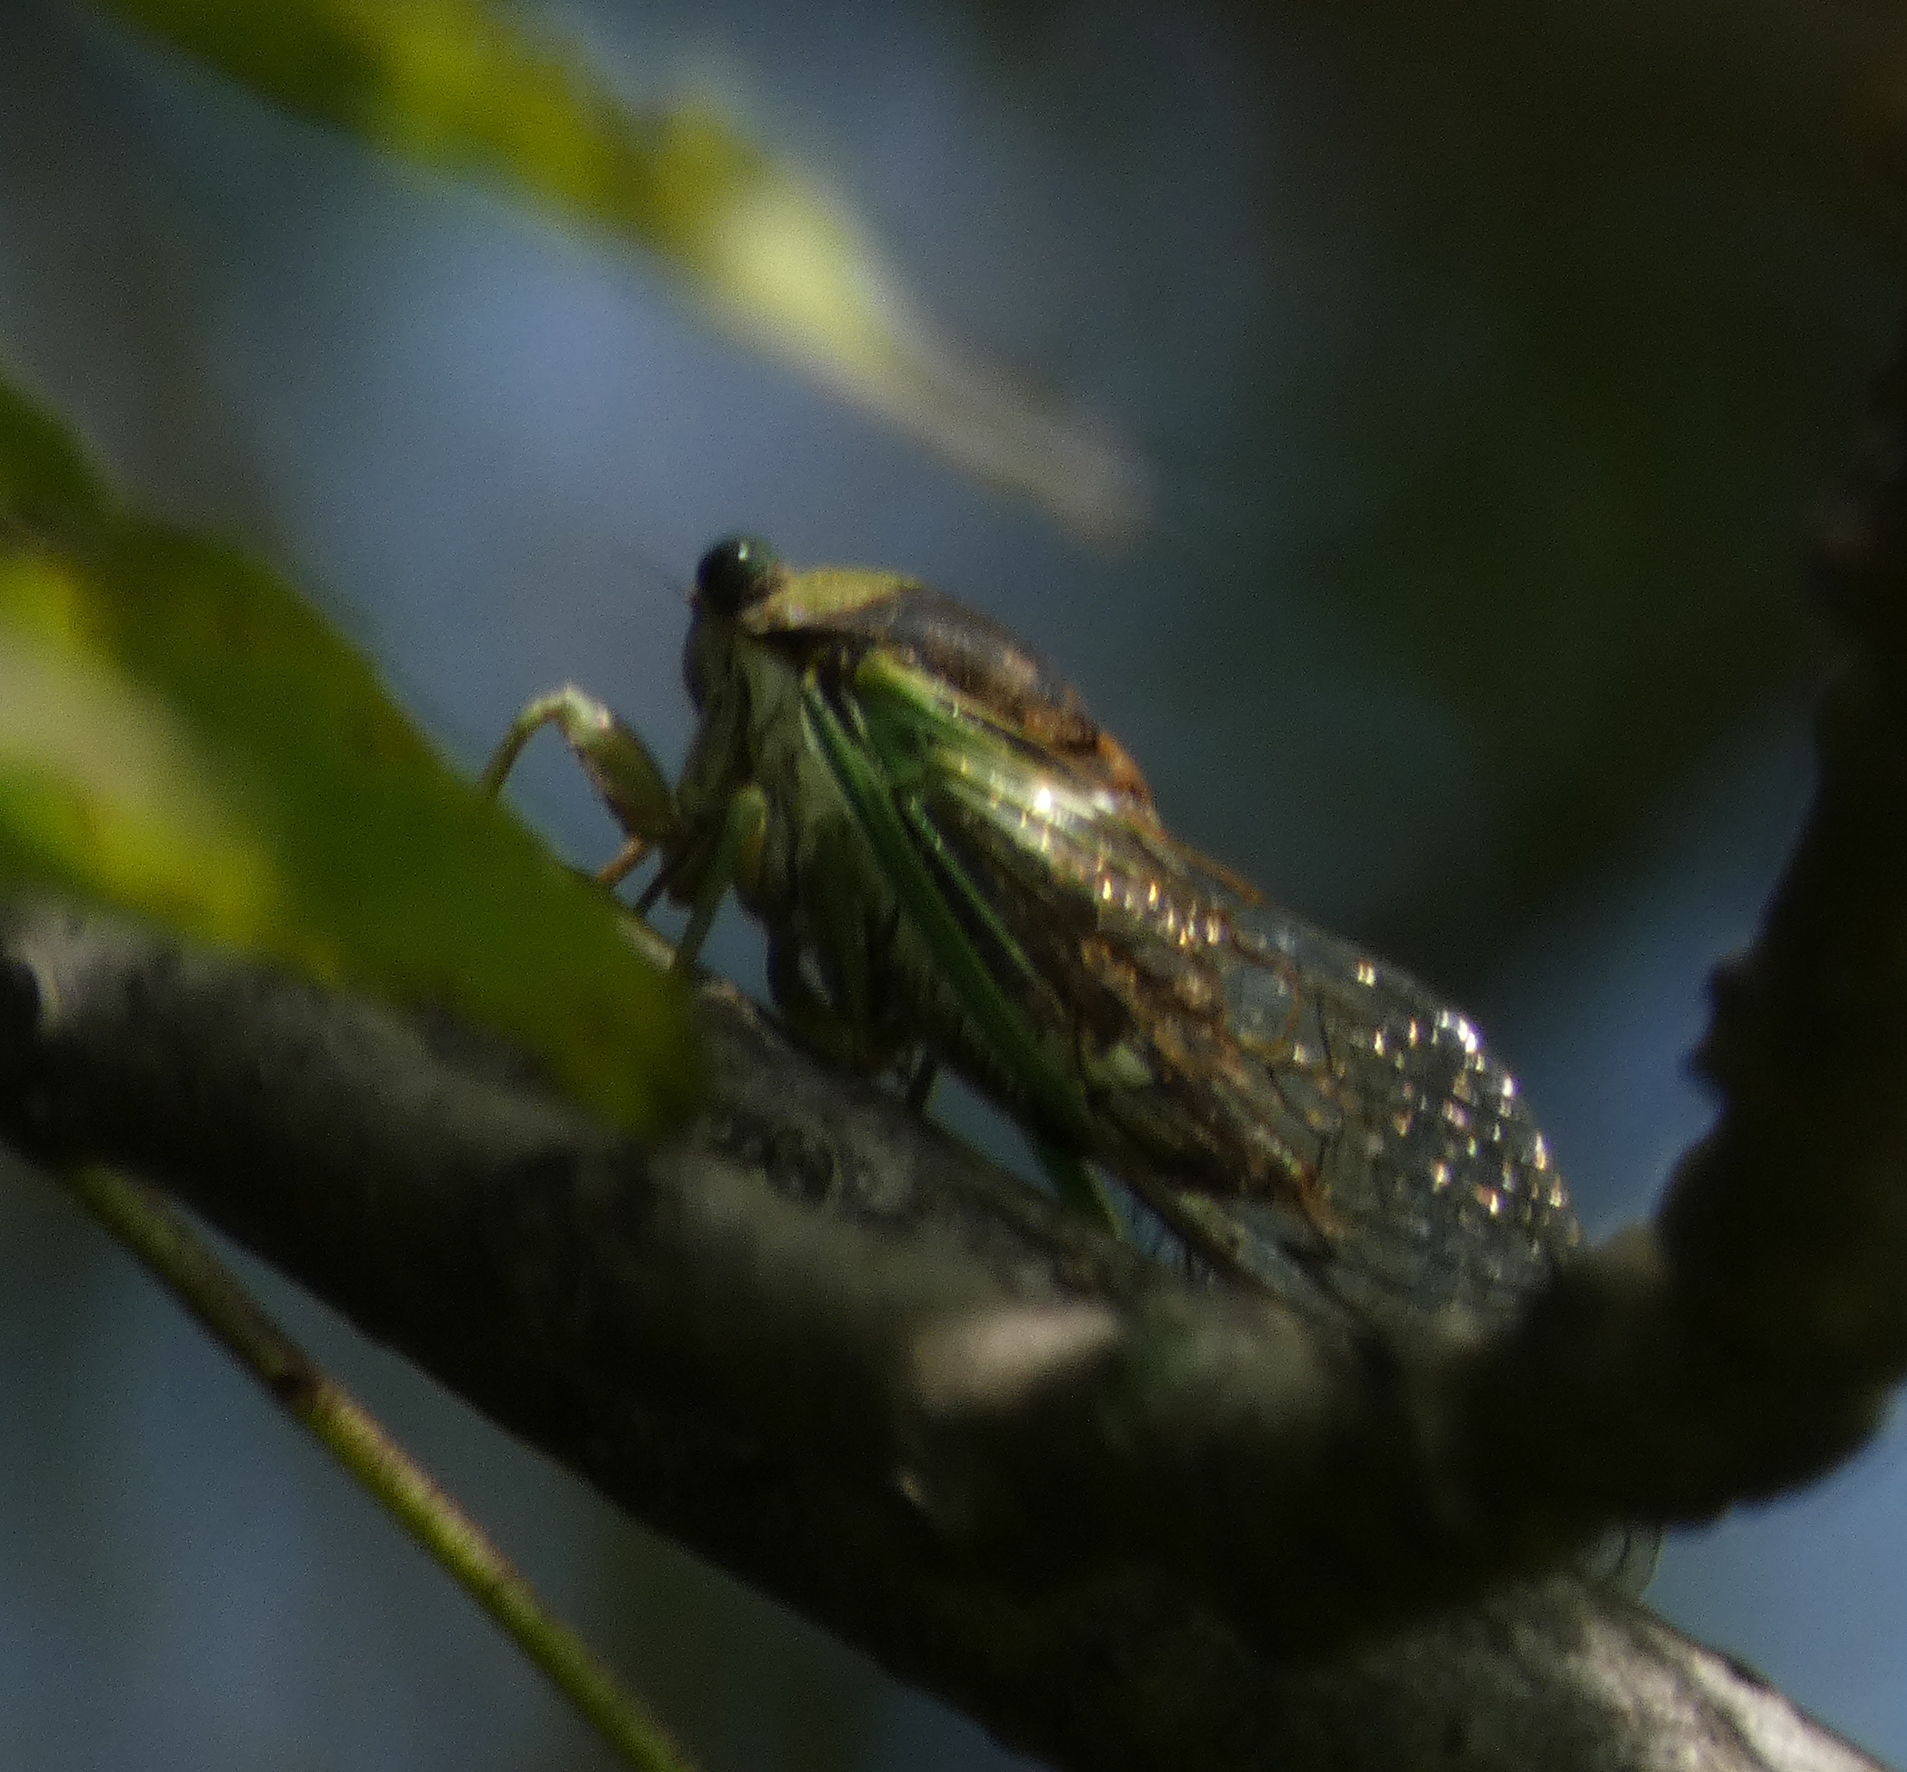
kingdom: Animalia
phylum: Arthropoda
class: Insecta
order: Hemiptera
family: Cicadidae
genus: Neotibicen
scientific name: Neotibicen tibicen
